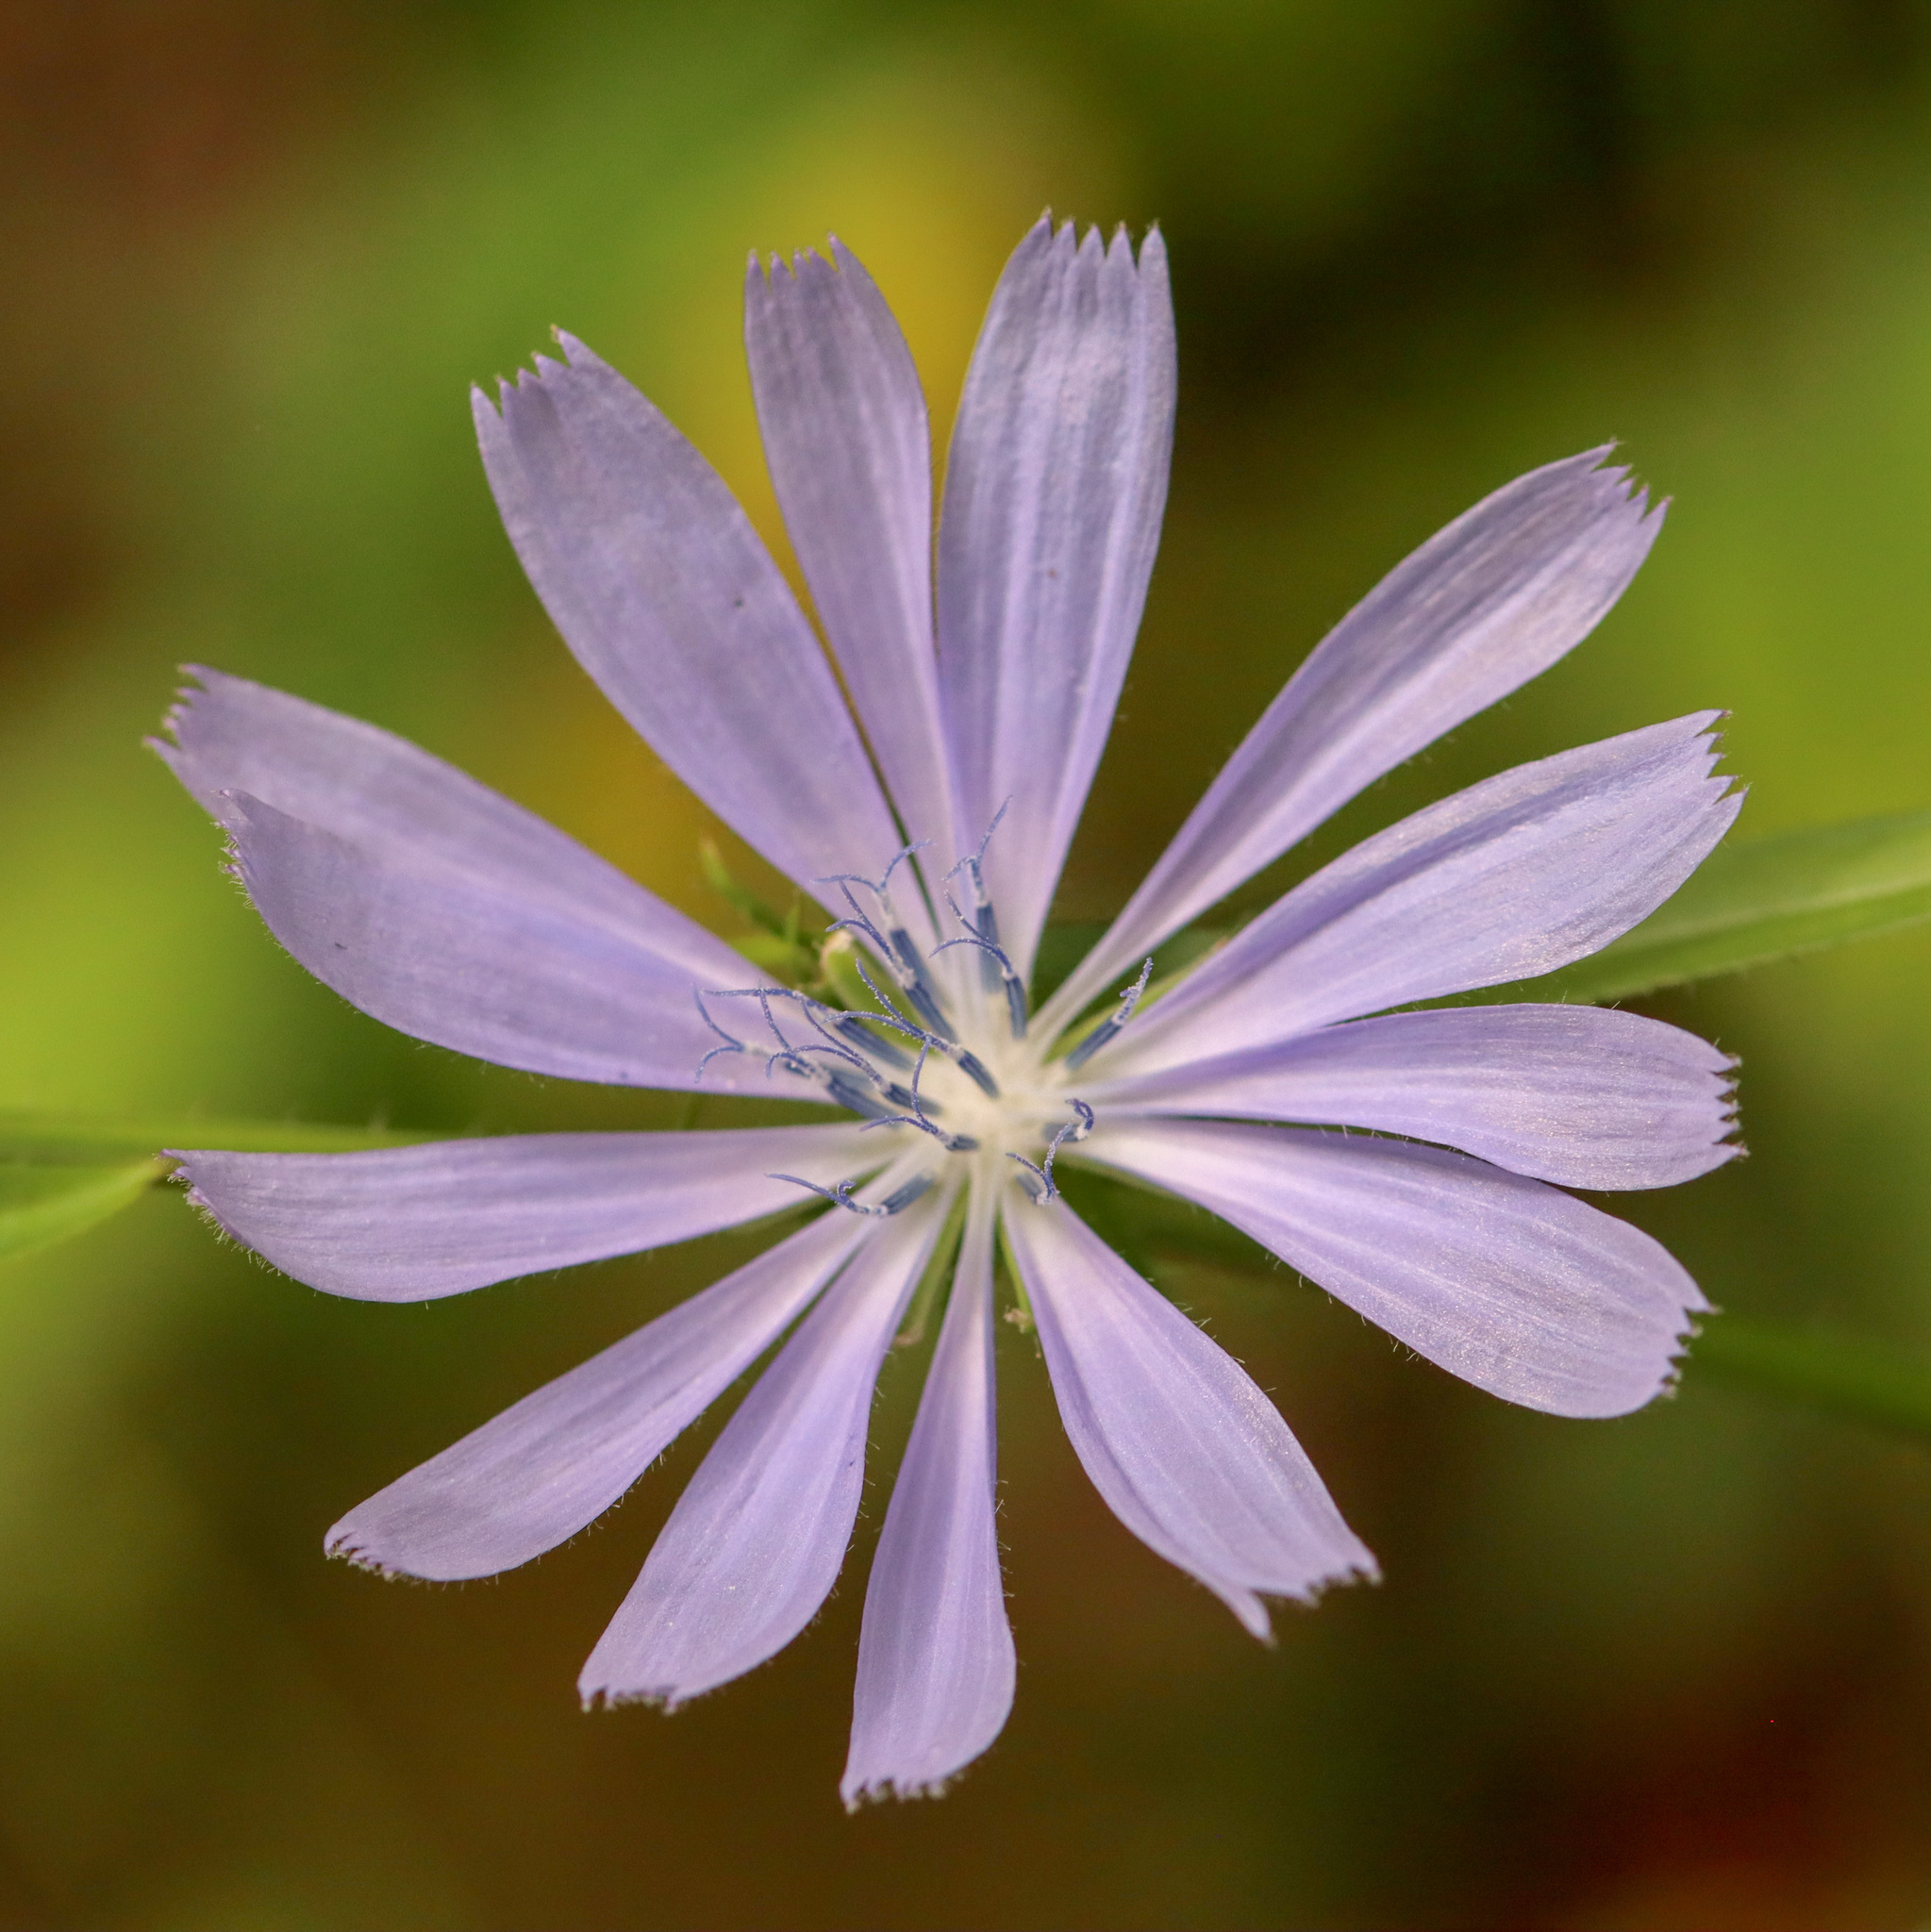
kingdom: Plantae
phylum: Tracheophyta
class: Magnoliopsida
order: Asterales
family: Asteraceae
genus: Cichorium
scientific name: Cichorium intybus
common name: Chicory
